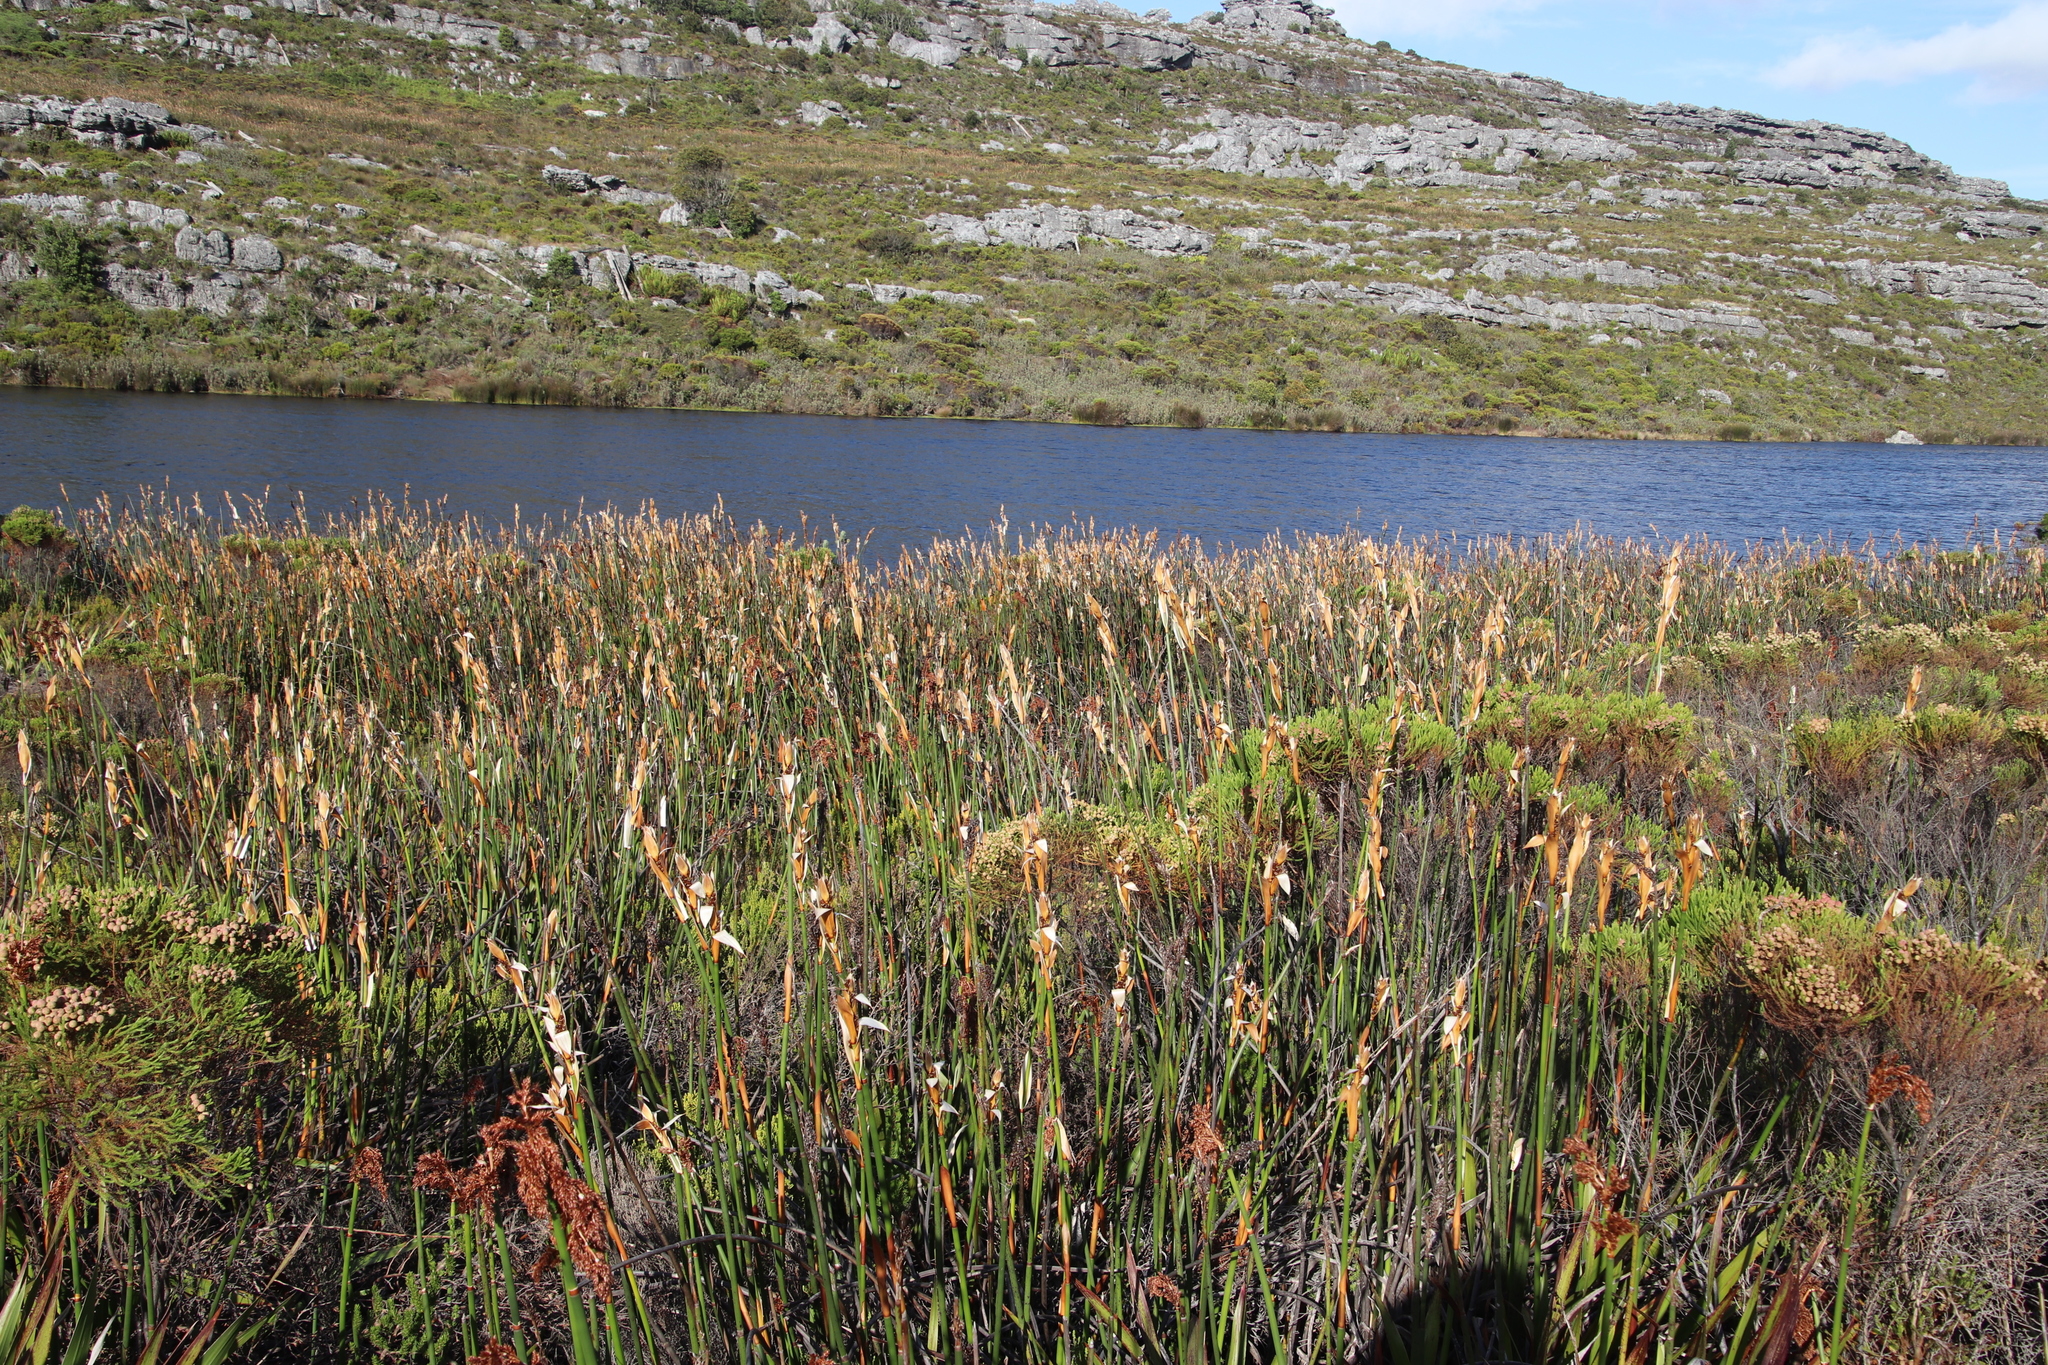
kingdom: Plantae
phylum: Tracheophyta
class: Liliopsida
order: Poales
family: Restionaceae
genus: Elegia
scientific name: Elegia mucronata
